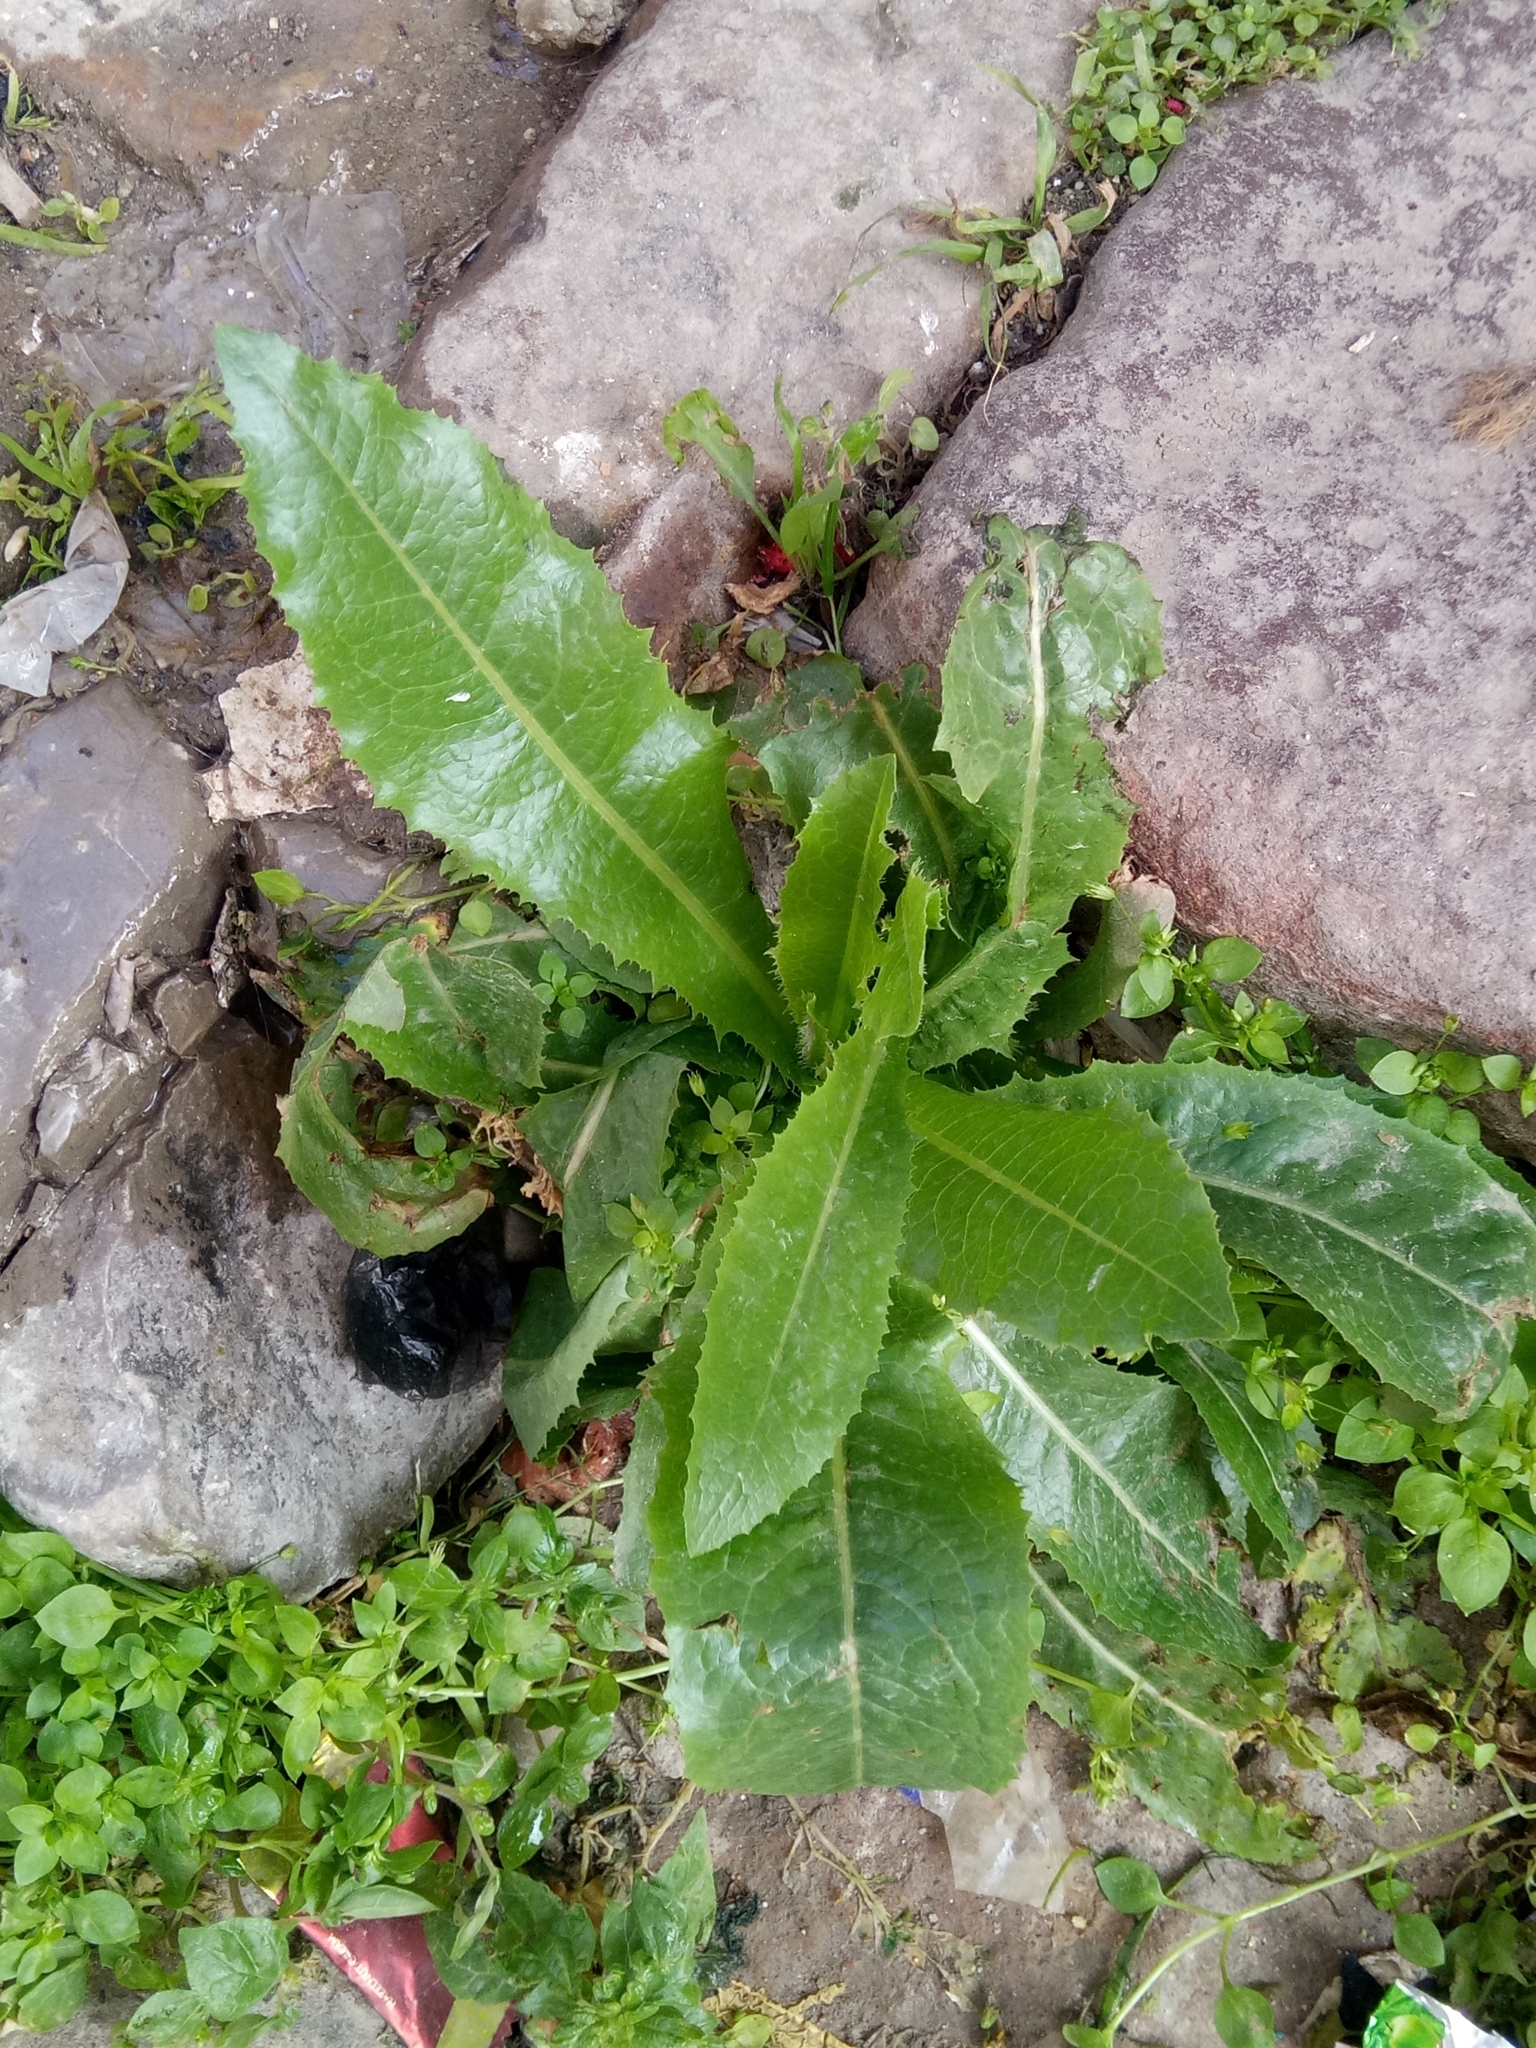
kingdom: Plantae
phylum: Tracheophyta
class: Magnoliopsida
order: Asterales
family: Asteraceae
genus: Lactuca
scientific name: Lactuca serriola
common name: Prickly lettuce
